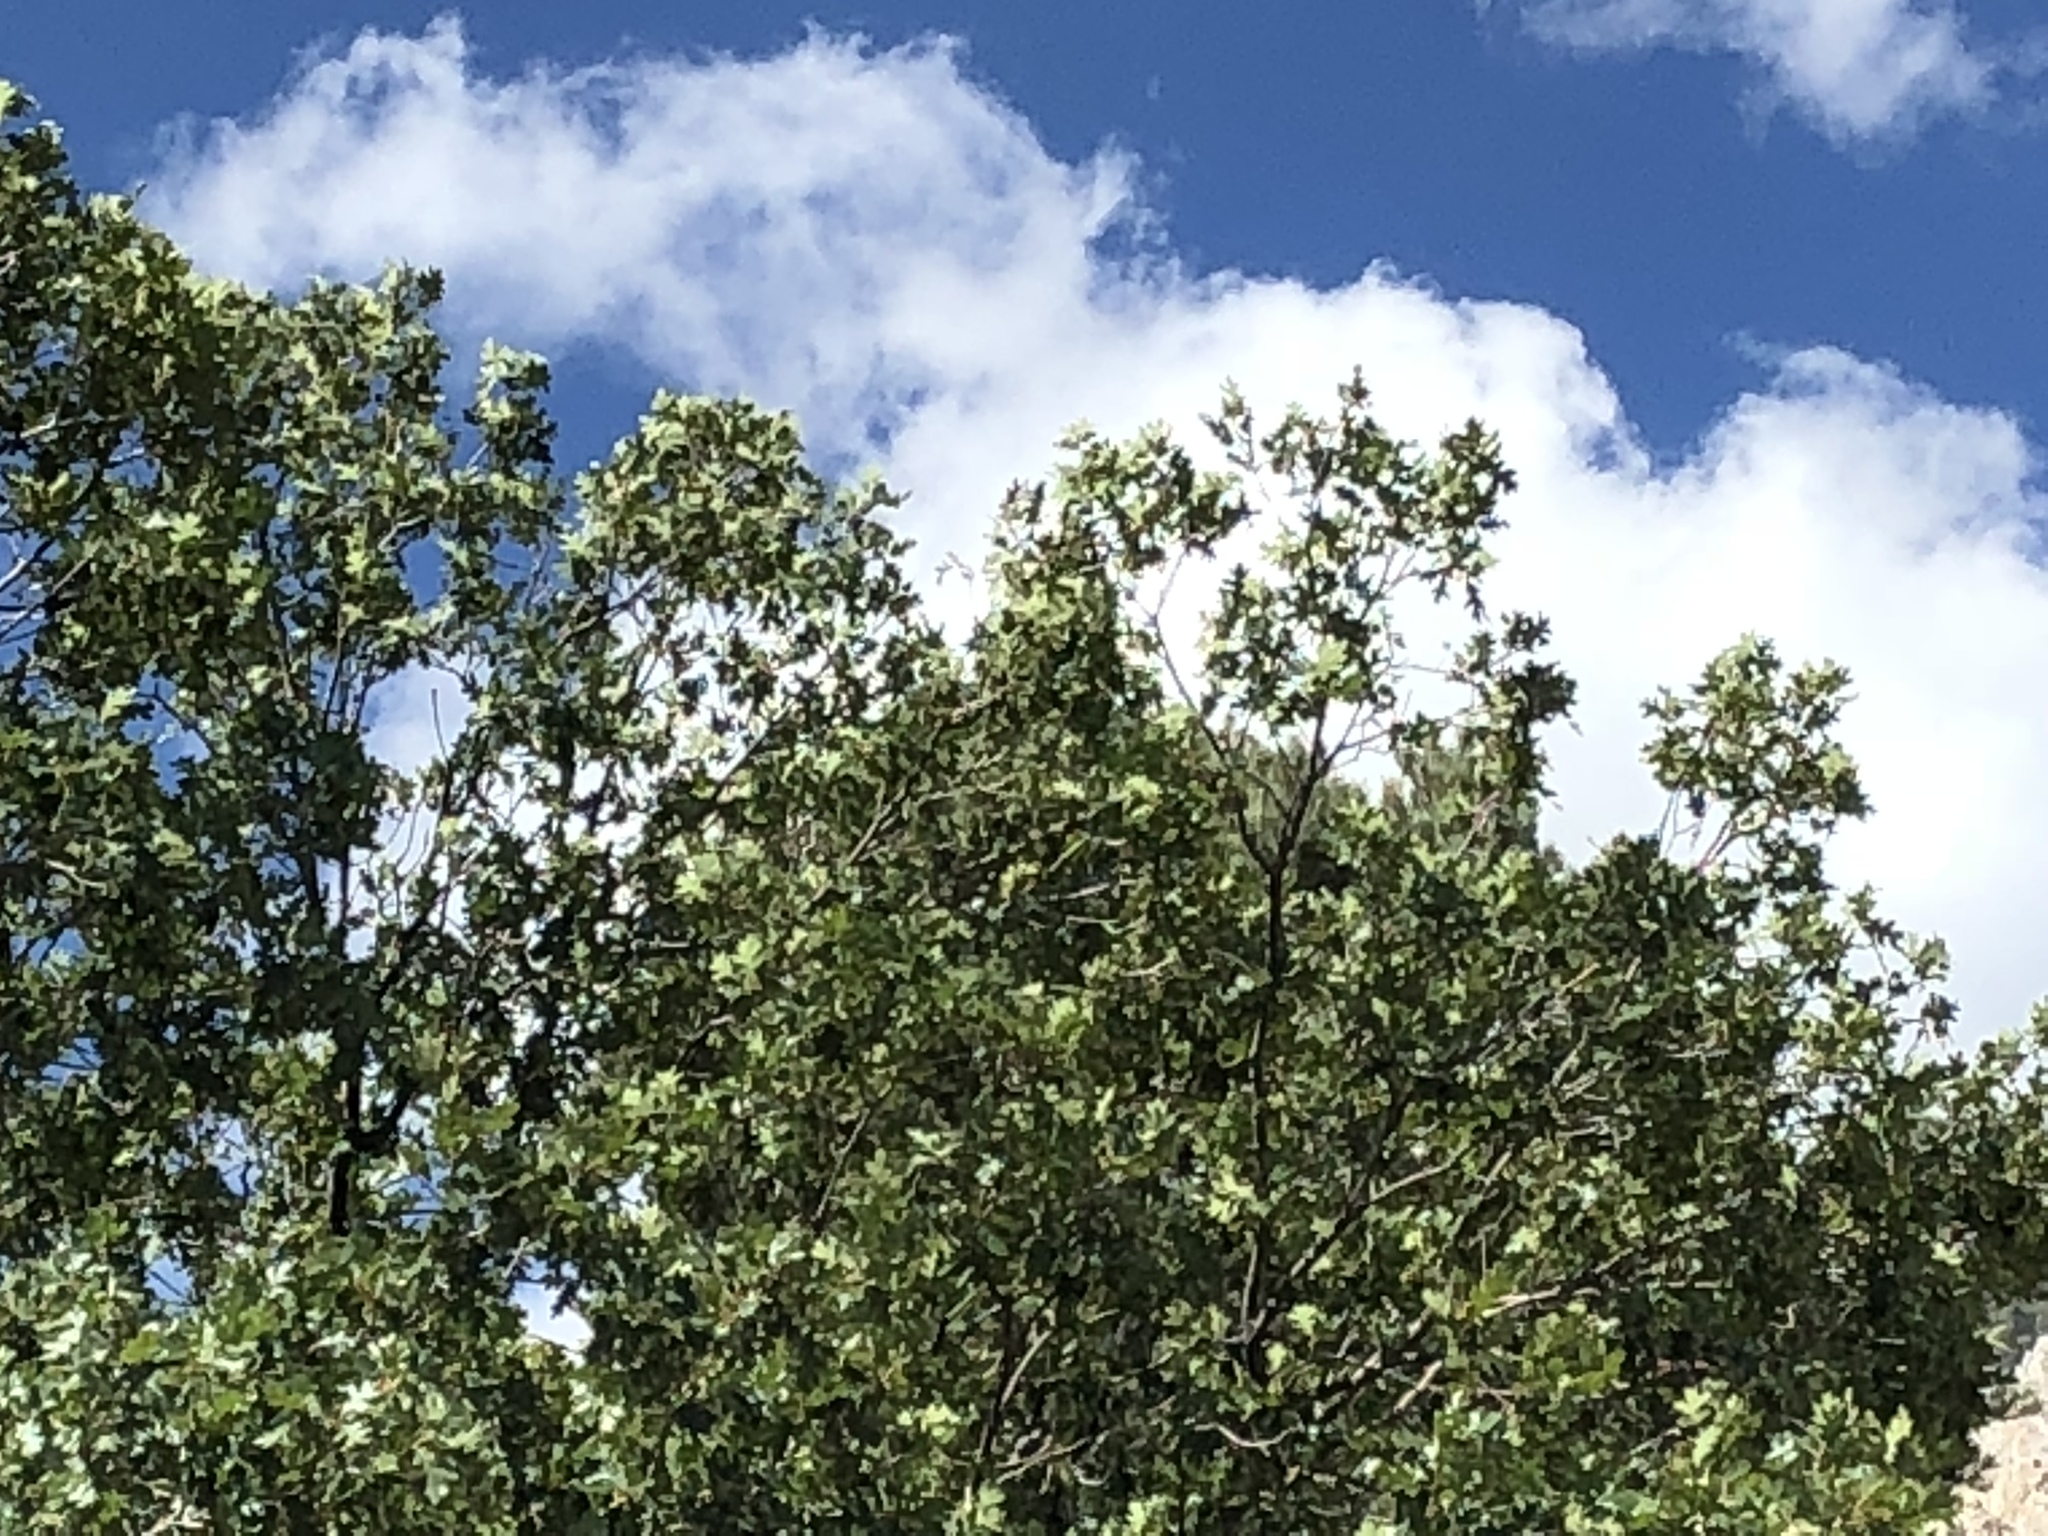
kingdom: Plantae
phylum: Tracheophyta
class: Magnoliopsida
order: Fagales
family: Fagaceae
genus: Quercus
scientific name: Quercus gambelii
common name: Gambel oak
